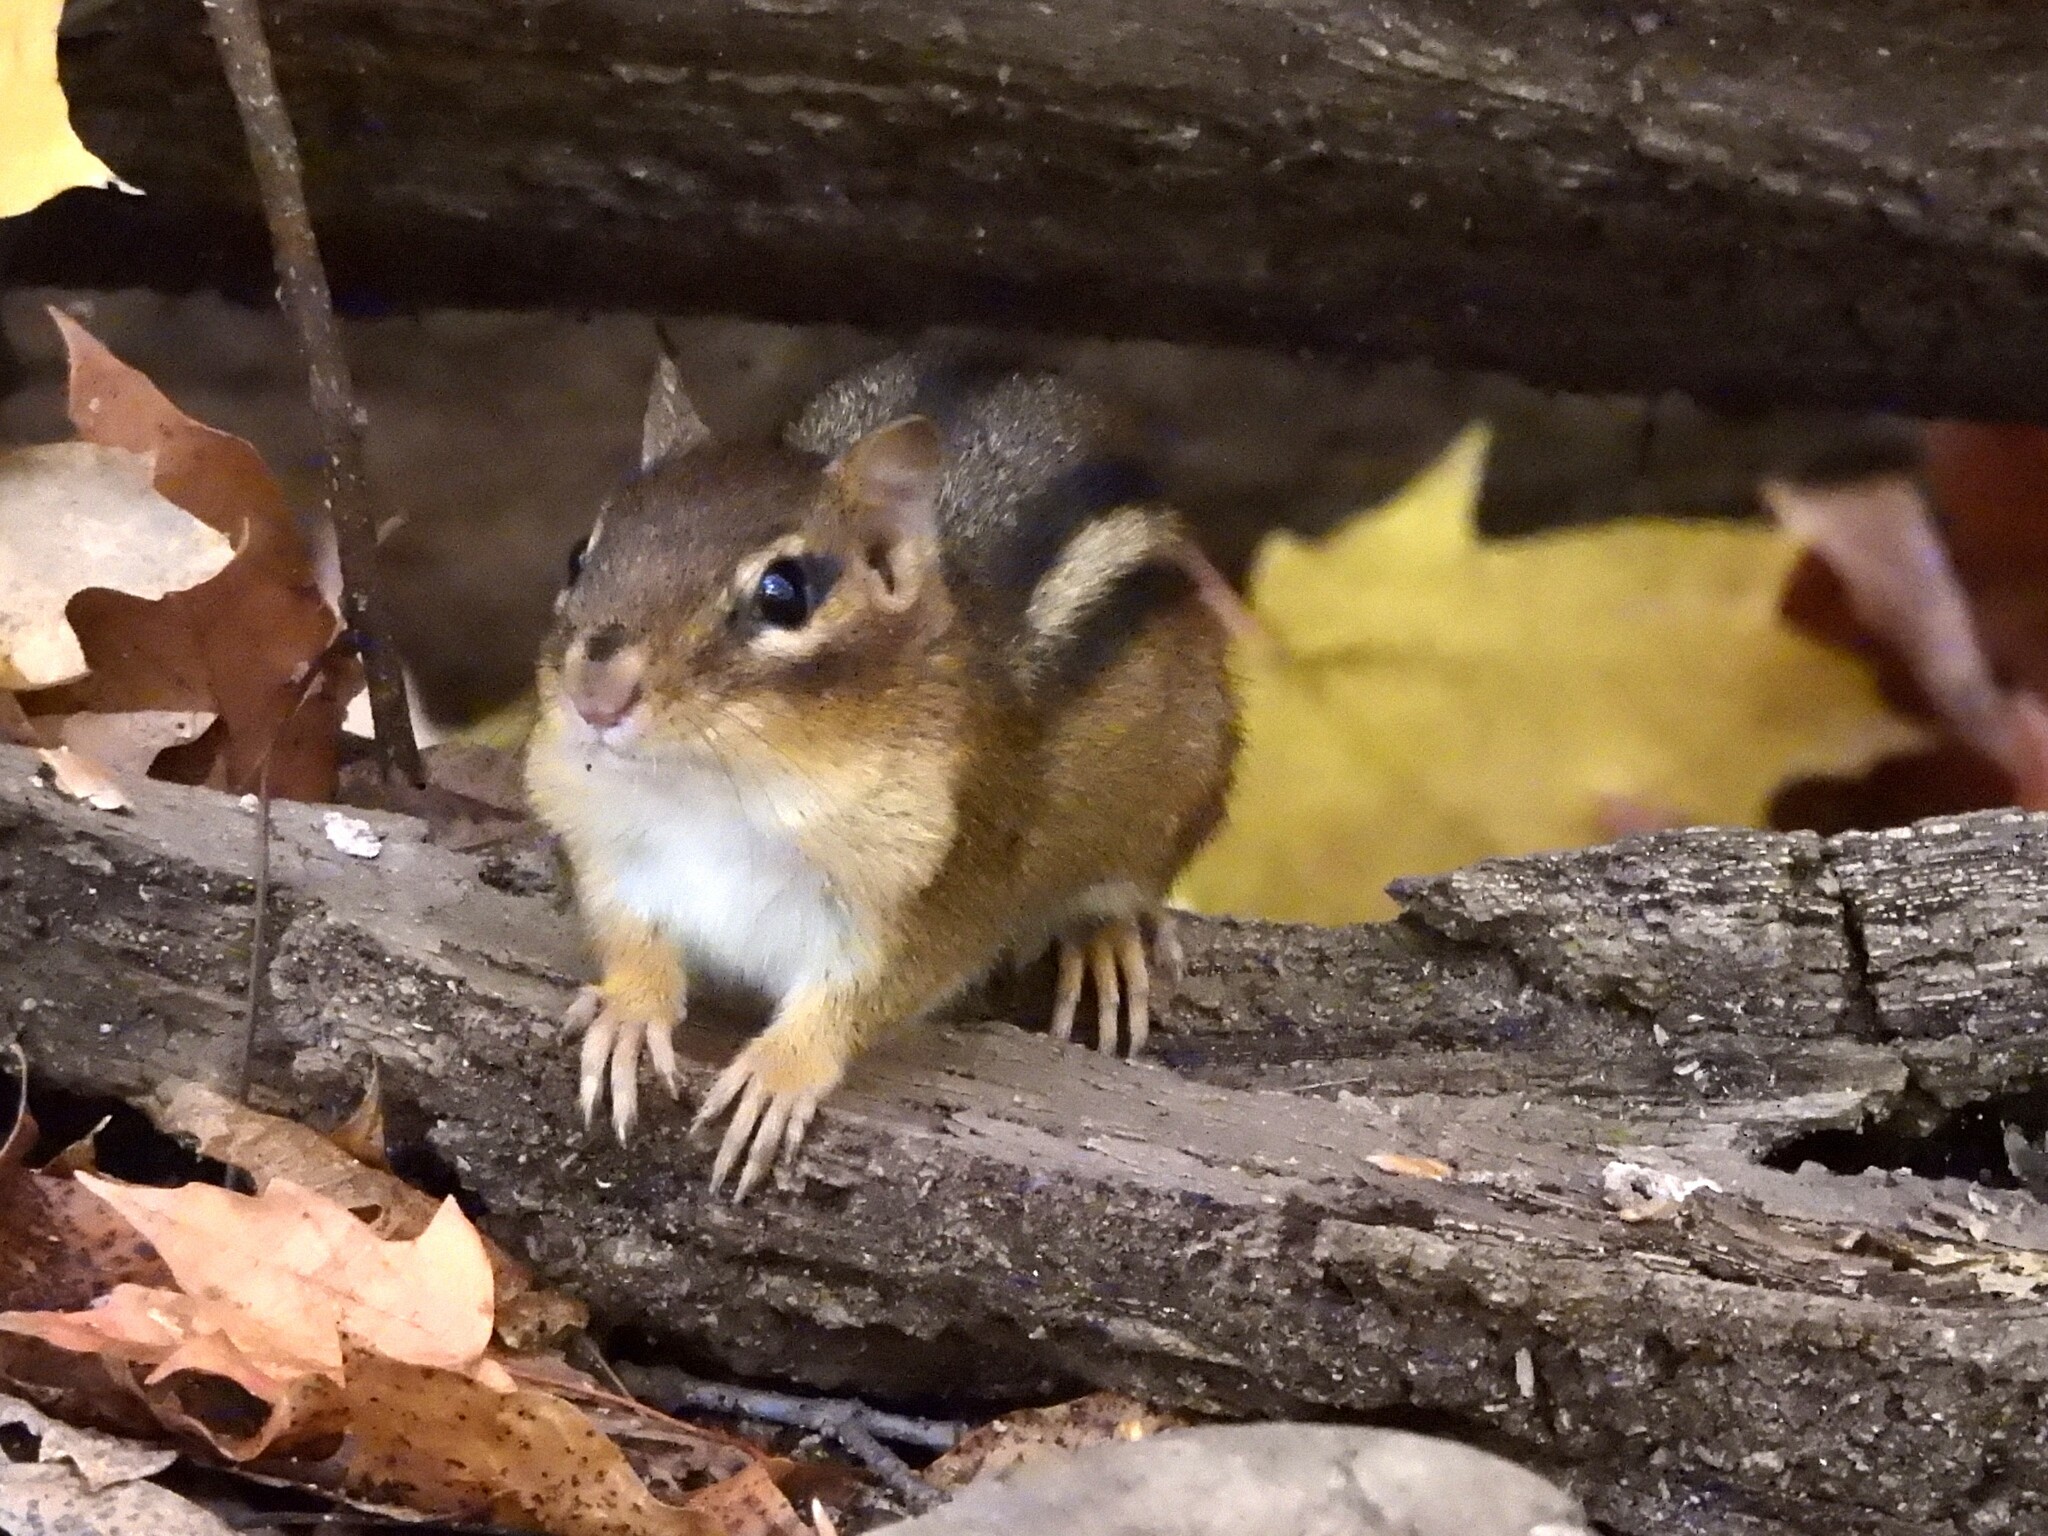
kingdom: Animalia
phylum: Chordata
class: Mammalia
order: Rodentia
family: Sciuridae
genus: Tamias
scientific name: Tamias striatus
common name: Eastern chipmunk
